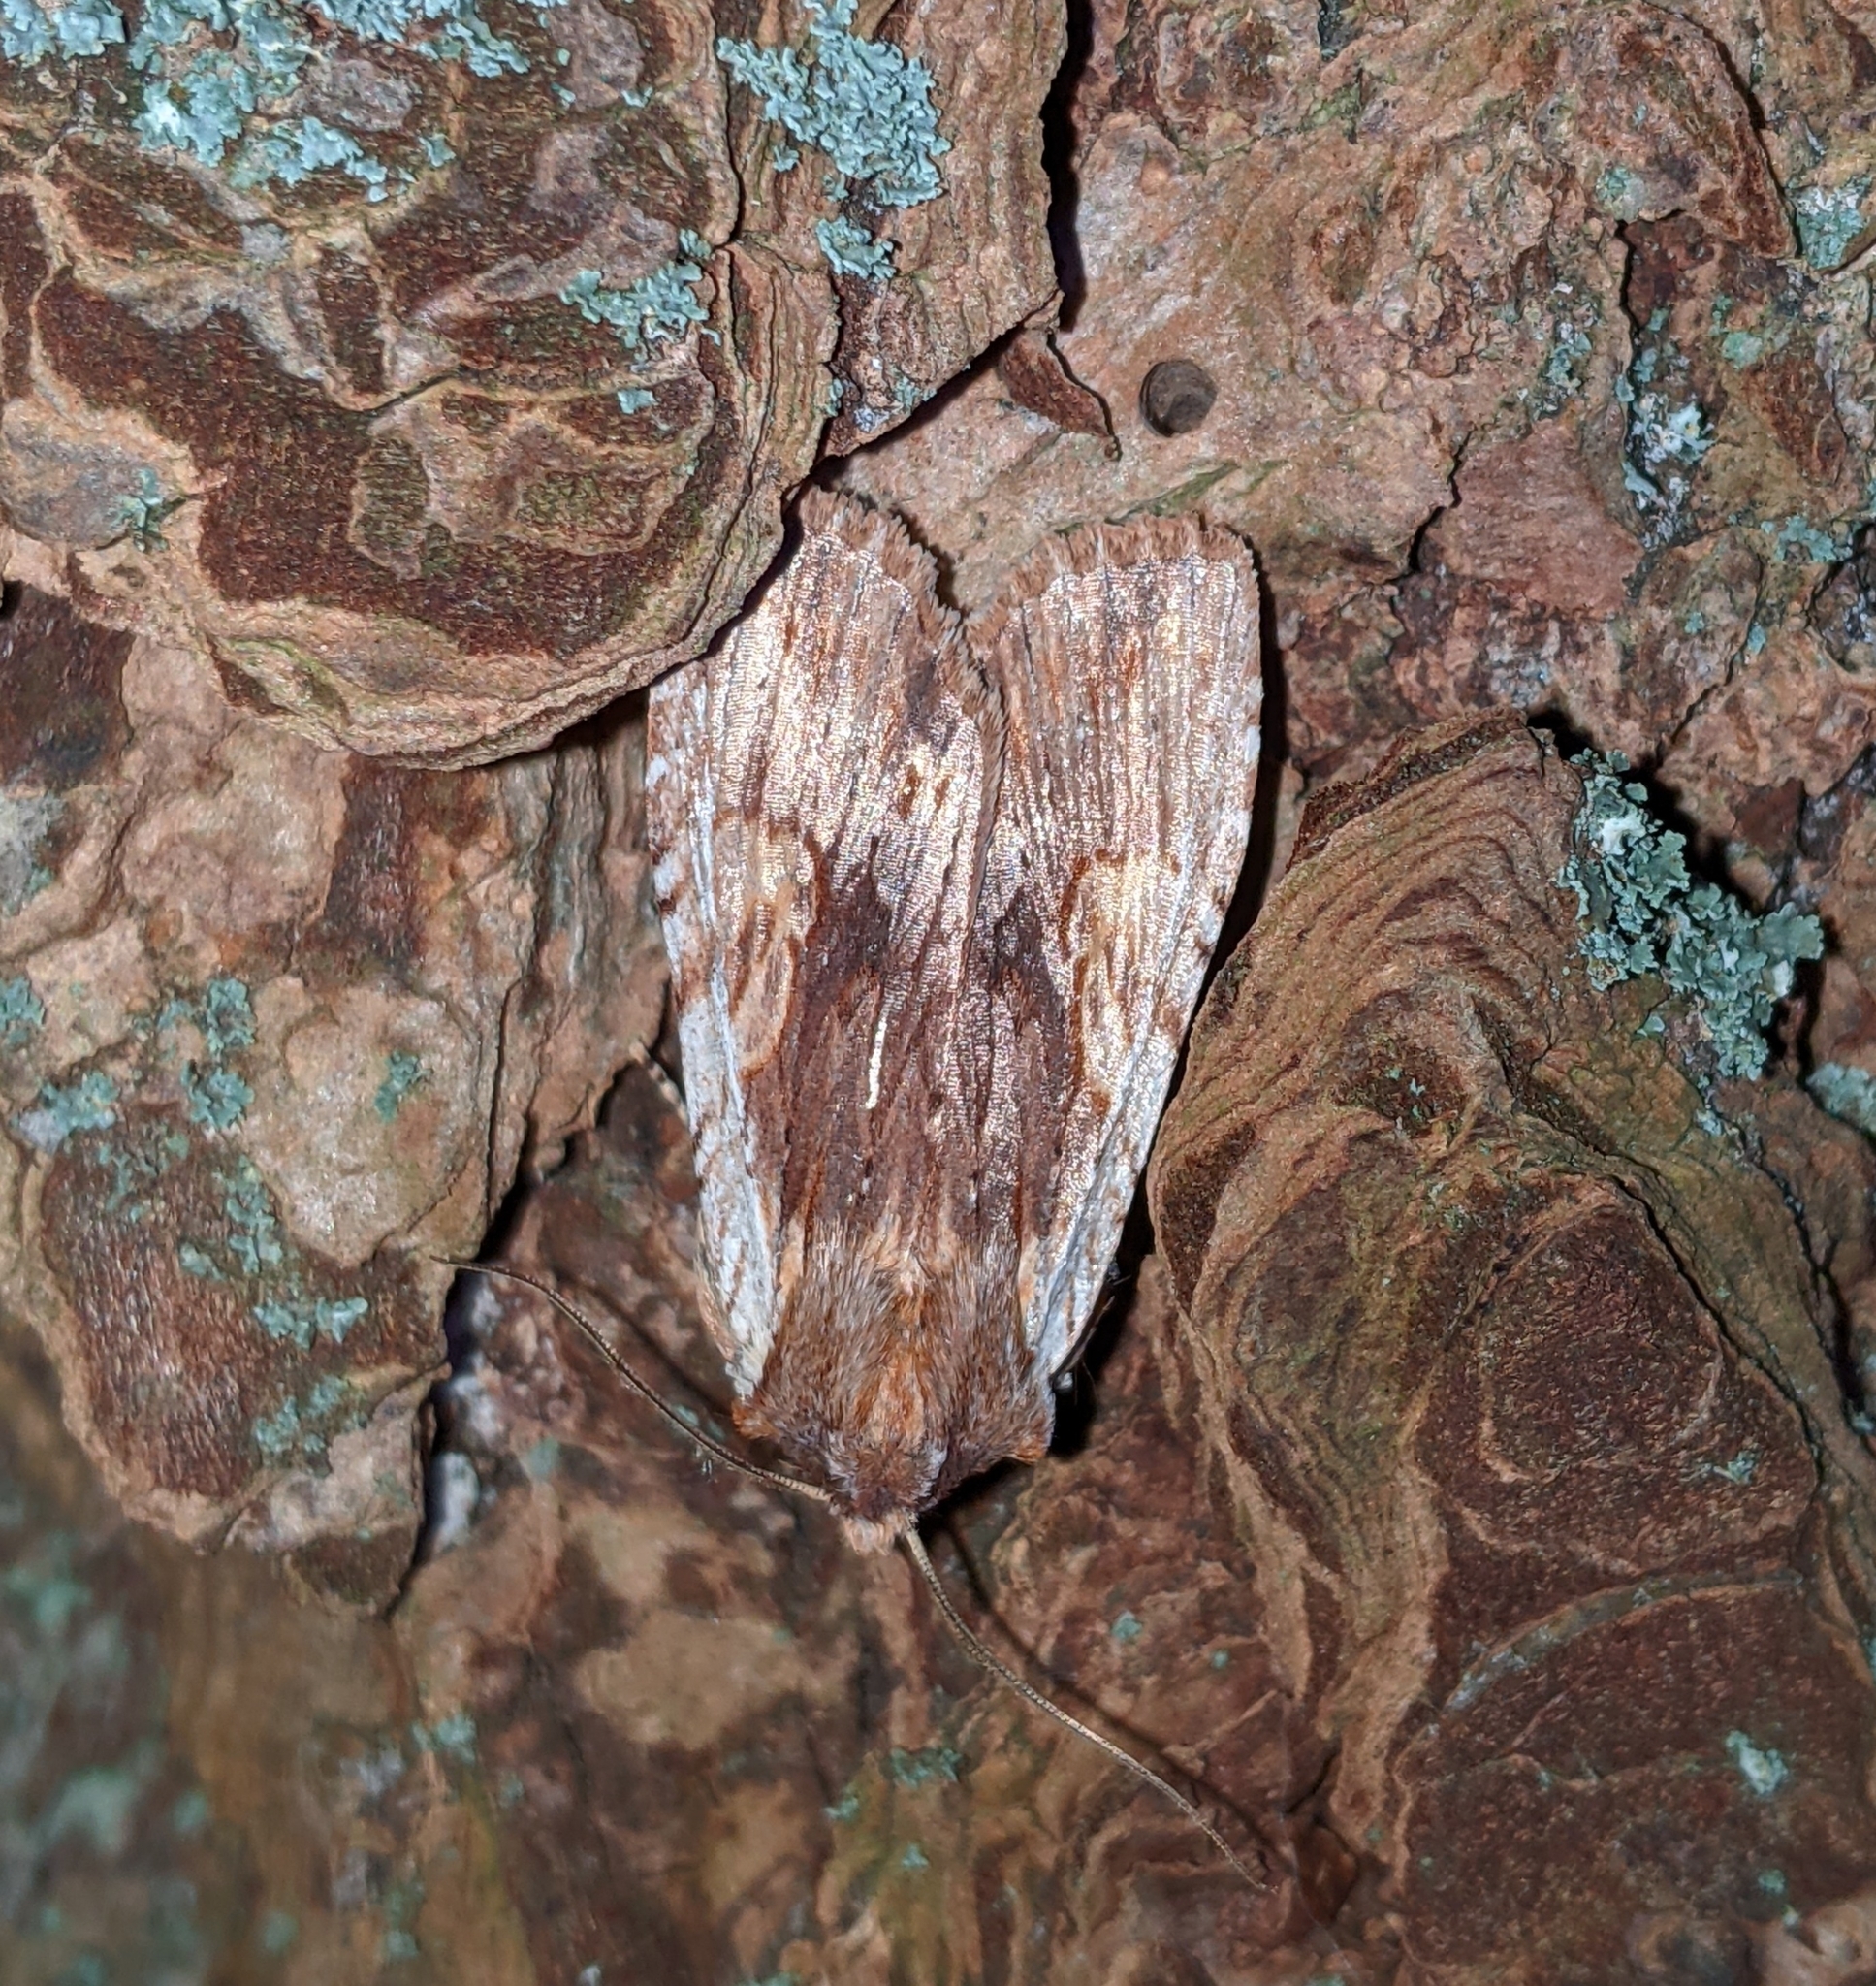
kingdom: Animalia
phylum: Arthropoda
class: Insecta
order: Lepidoptera
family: Noctuidae
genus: Lithophane
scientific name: Lithophane petulca
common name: Wanton pinion
